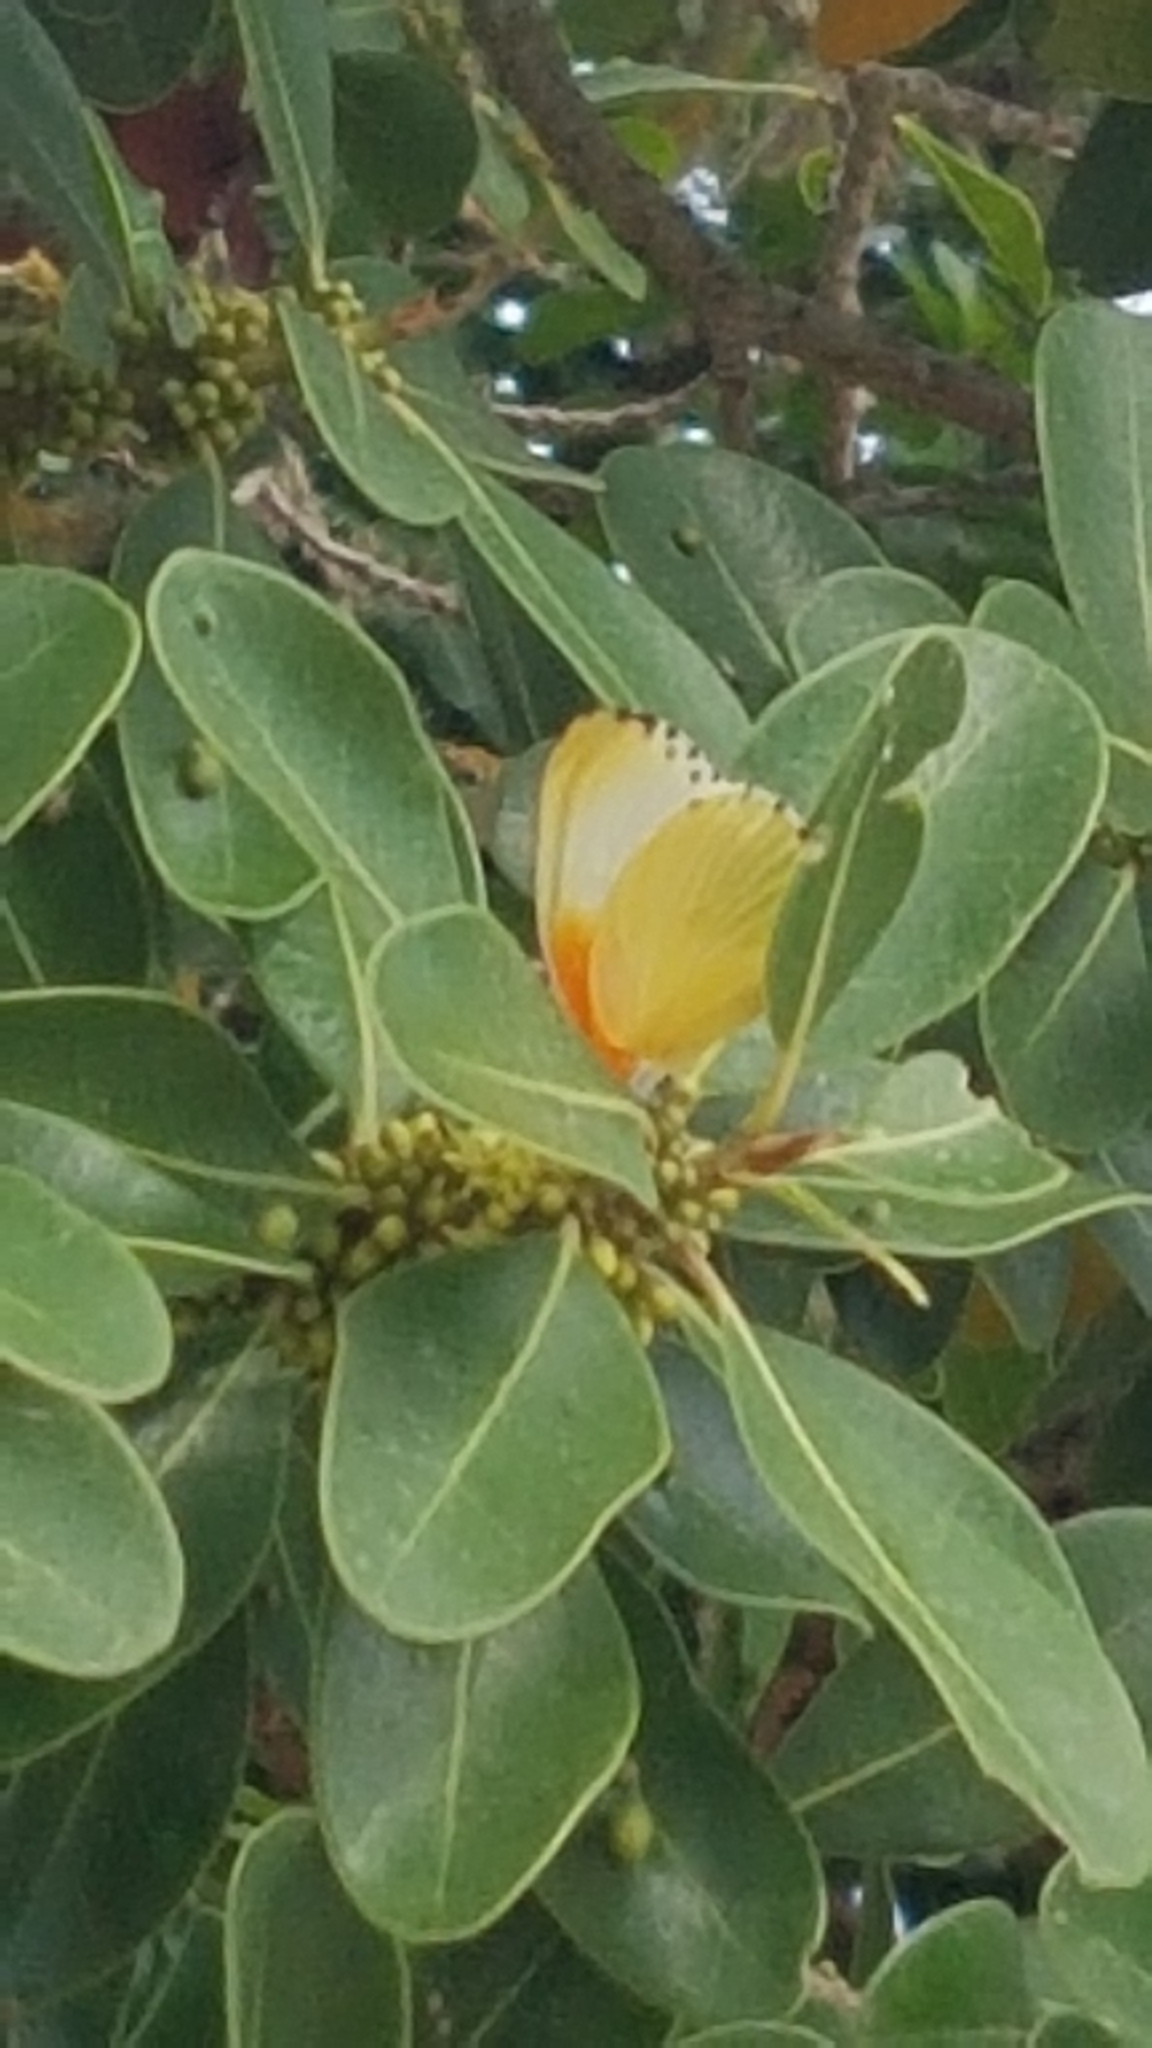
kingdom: Animalia
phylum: Arthropoda
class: Insecta
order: Lepidoptera
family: Pieridae
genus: Mylothris
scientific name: Mylothris agathina
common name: Eastern dotted border
